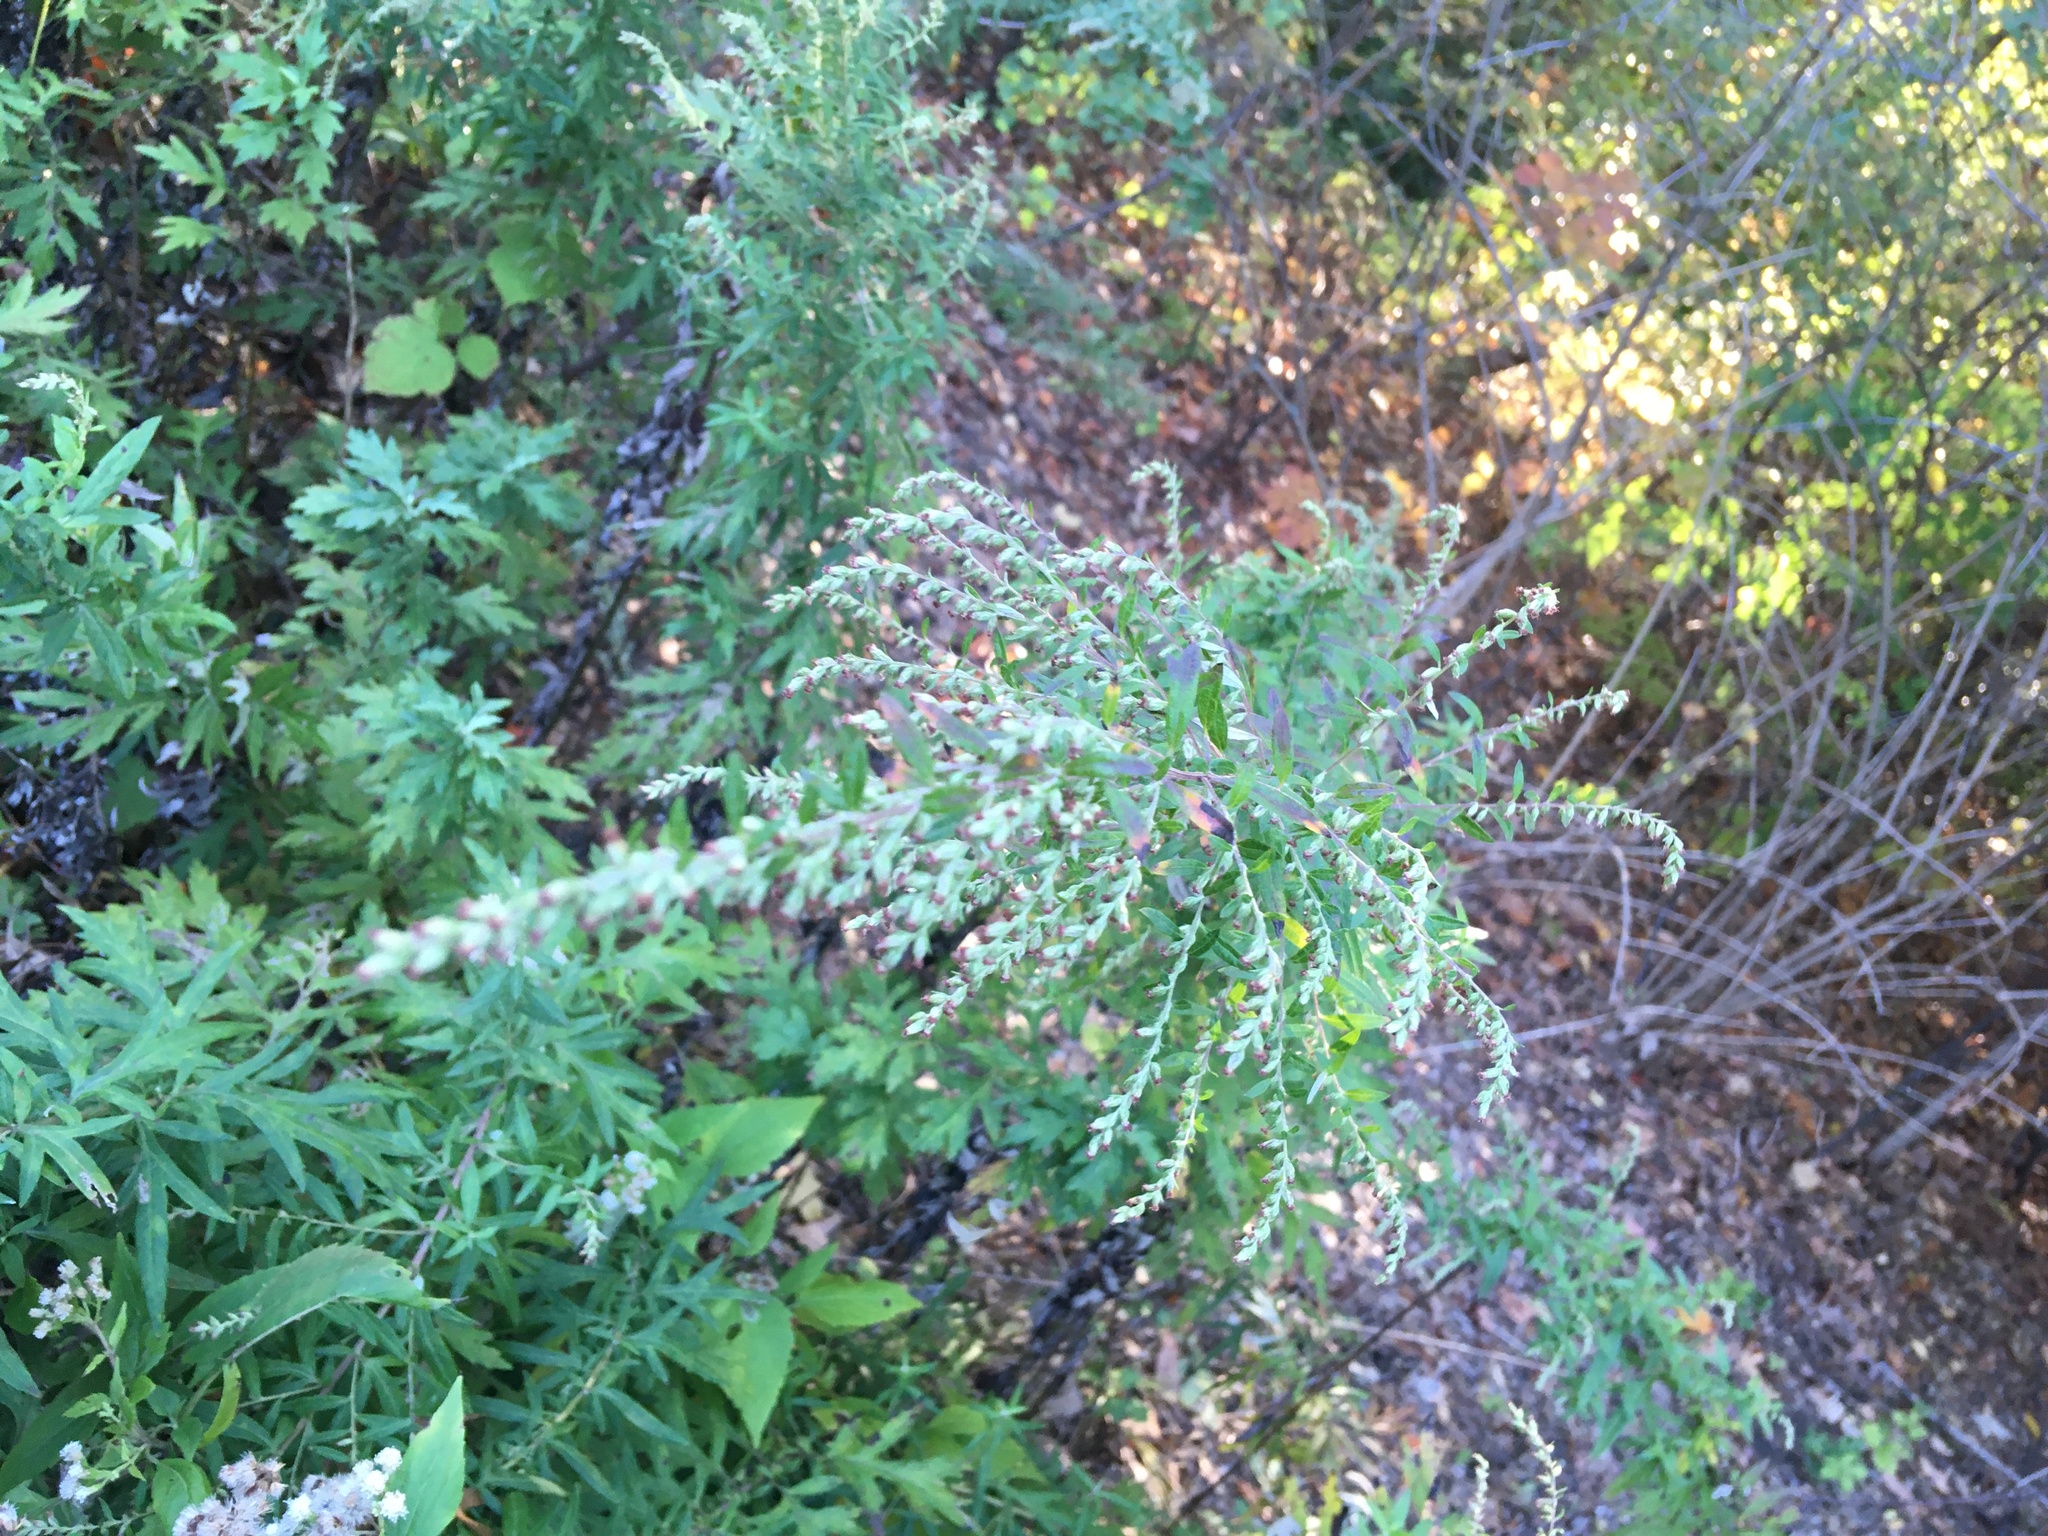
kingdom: Plantae
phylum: Tracheophyta
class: Magnoliopsida
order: Asterales
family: Asteraceae
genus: Artemisia
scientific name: Artemisia vulgaris
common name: Mugwort
